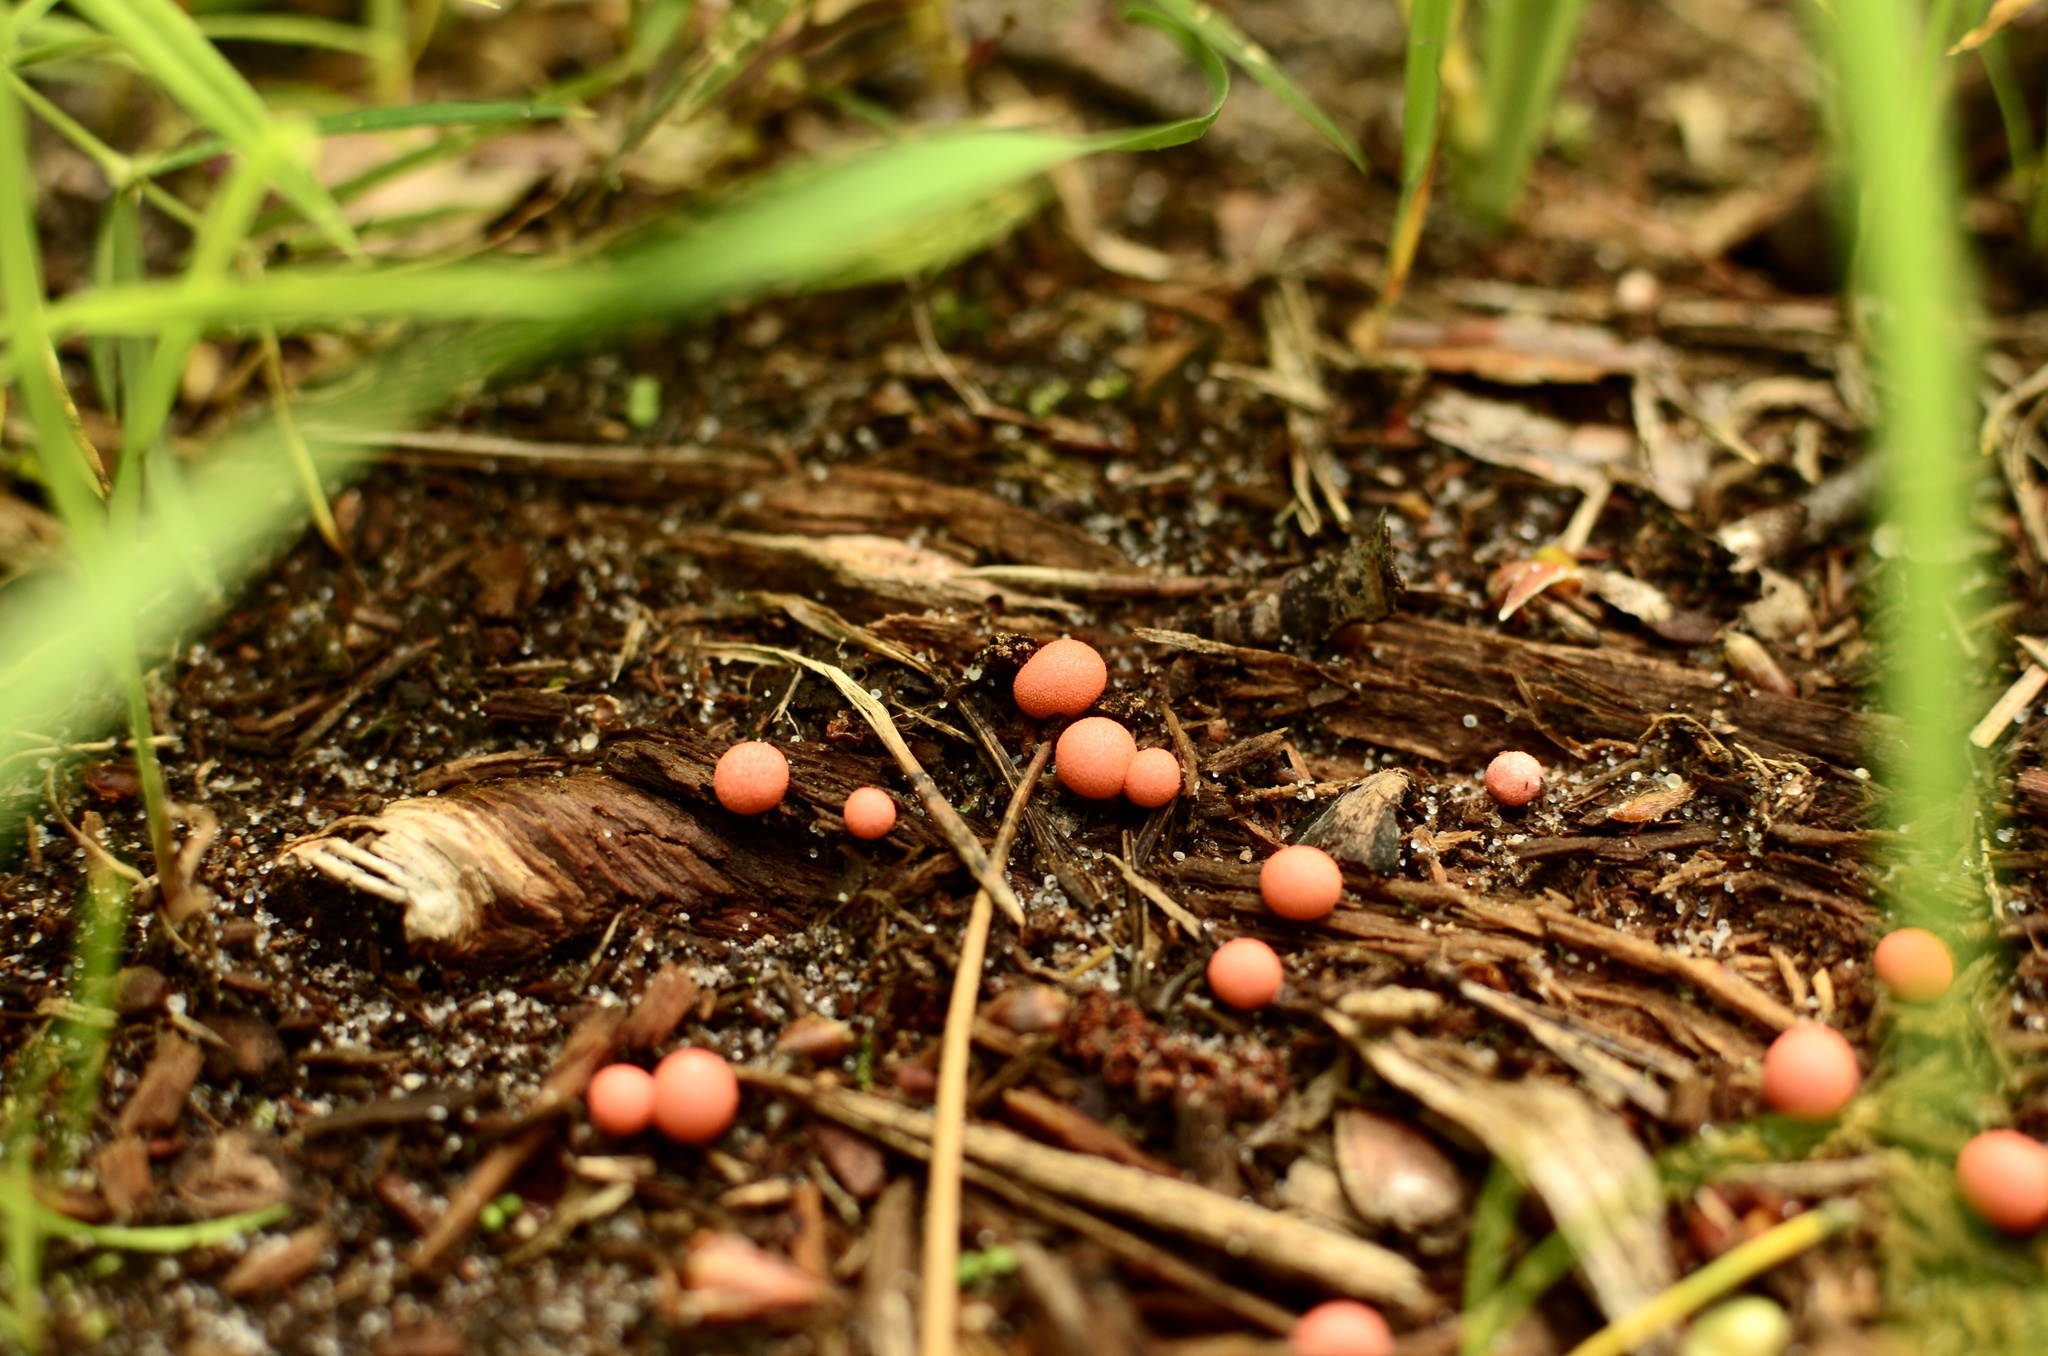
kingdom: Protozoa
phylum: Mycetozoa
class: Myxomycetes
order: Cribrariales
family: Tubiferaceae
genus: Lycogala
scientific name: Lycogala epidendrum
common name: Wolf's milk
